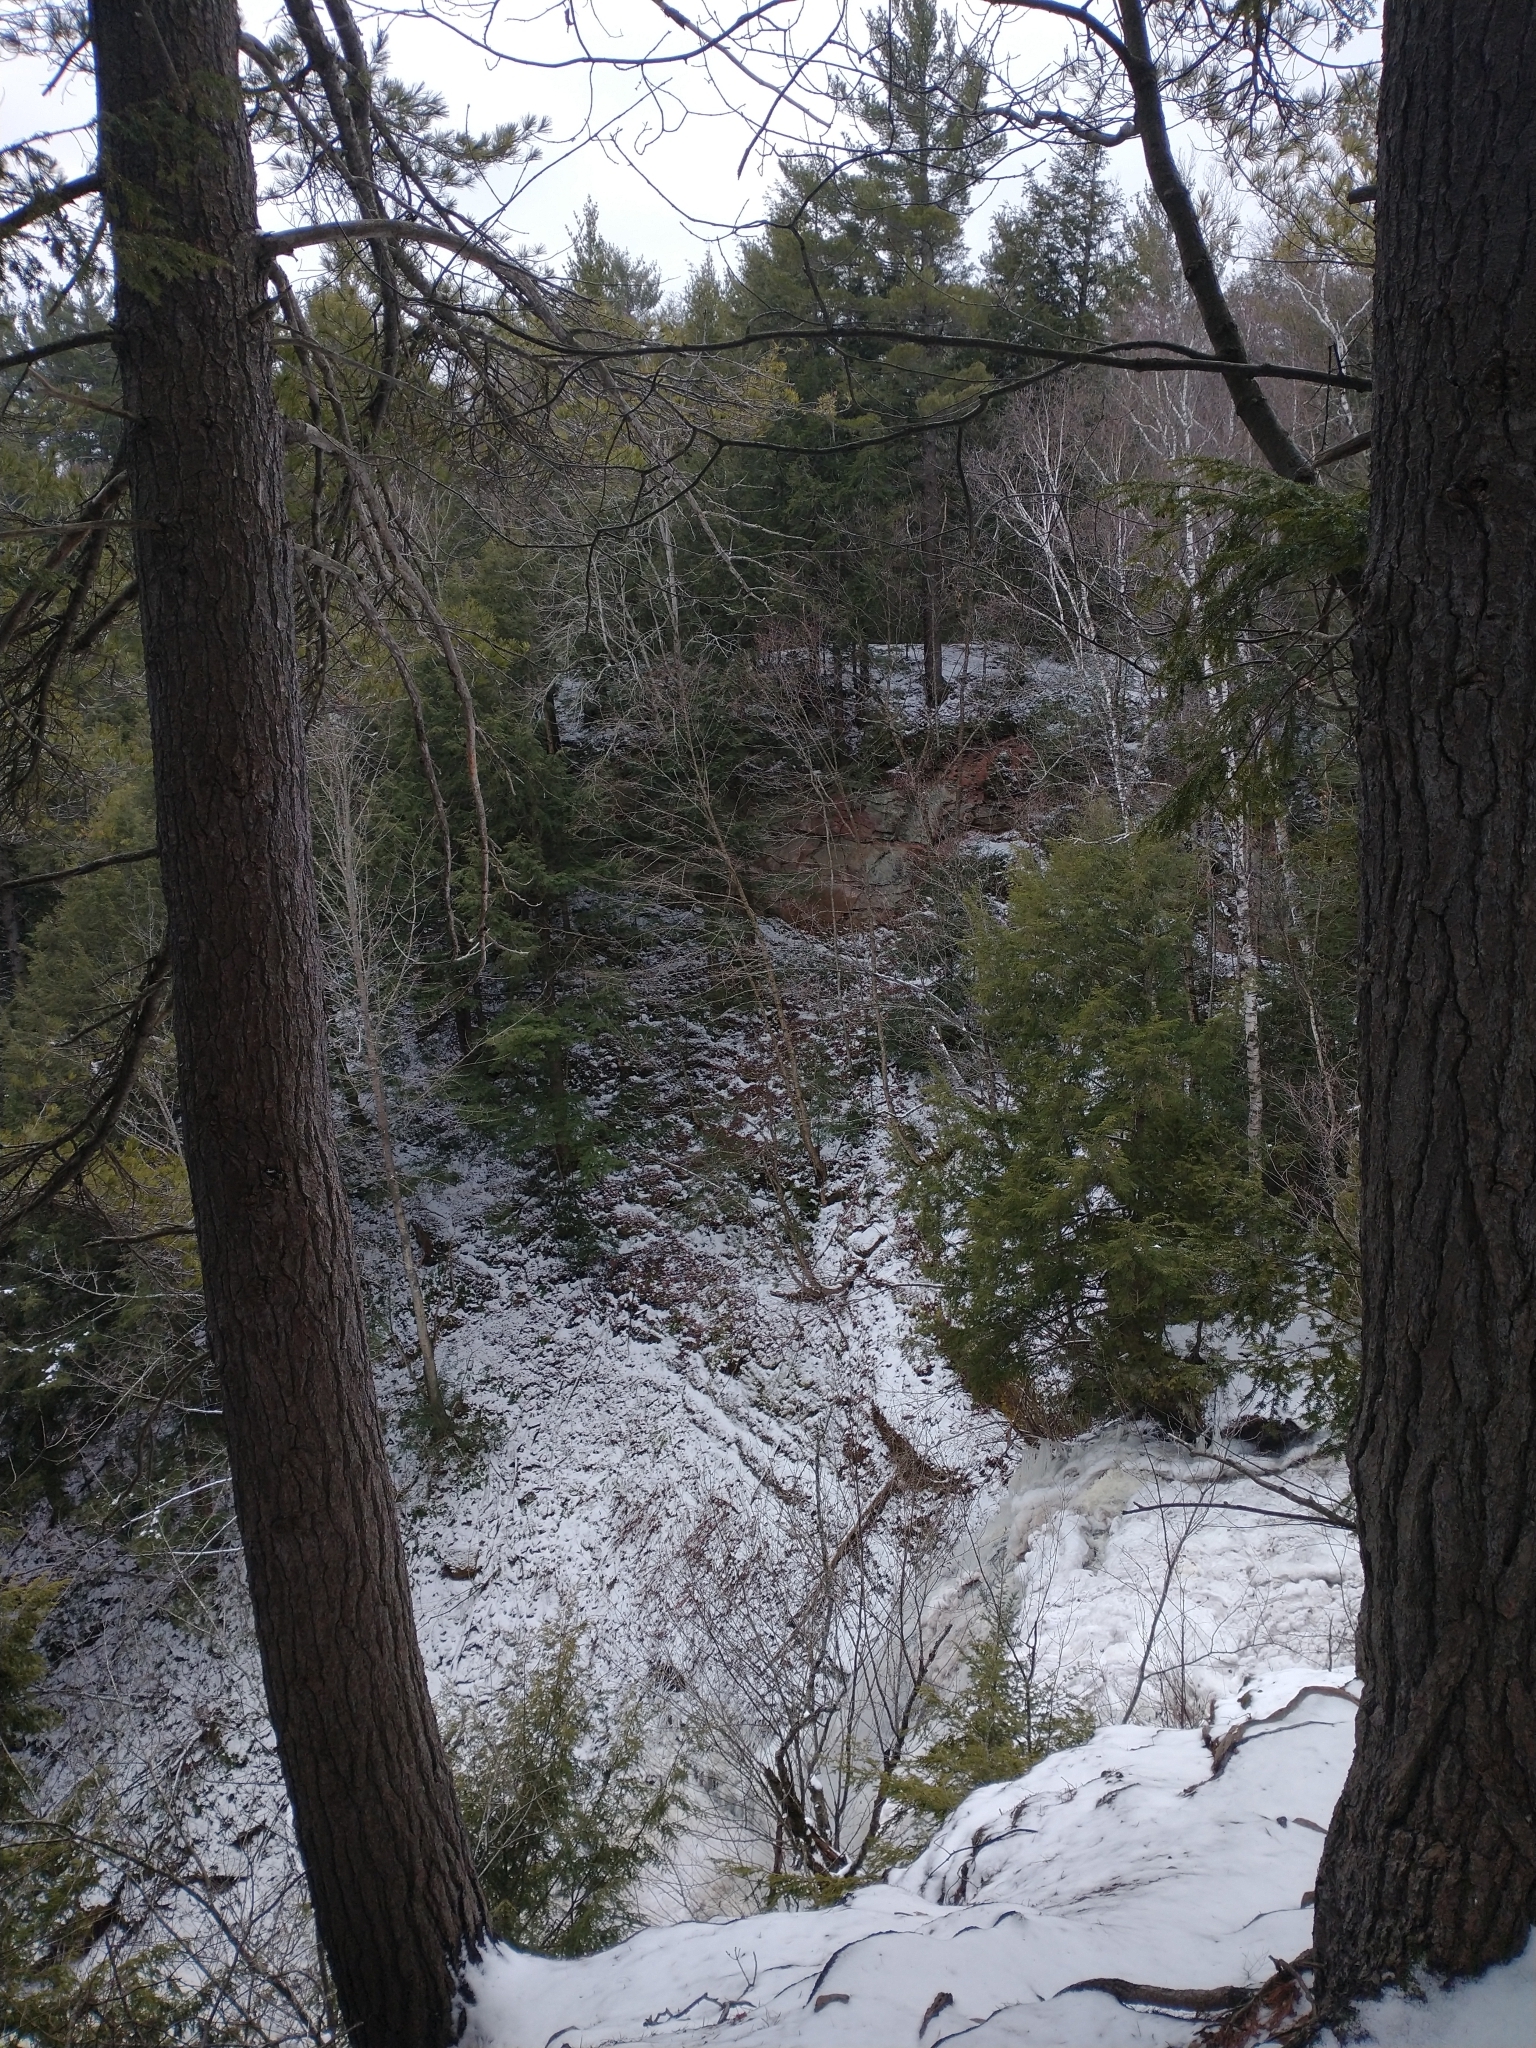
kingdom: Plantae
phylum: Tracheophyta
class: Pinopsida
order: Pinales
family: Pinaceae
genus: Tsuga
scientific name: Tsuga canadensis
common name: Eastern hemlock
